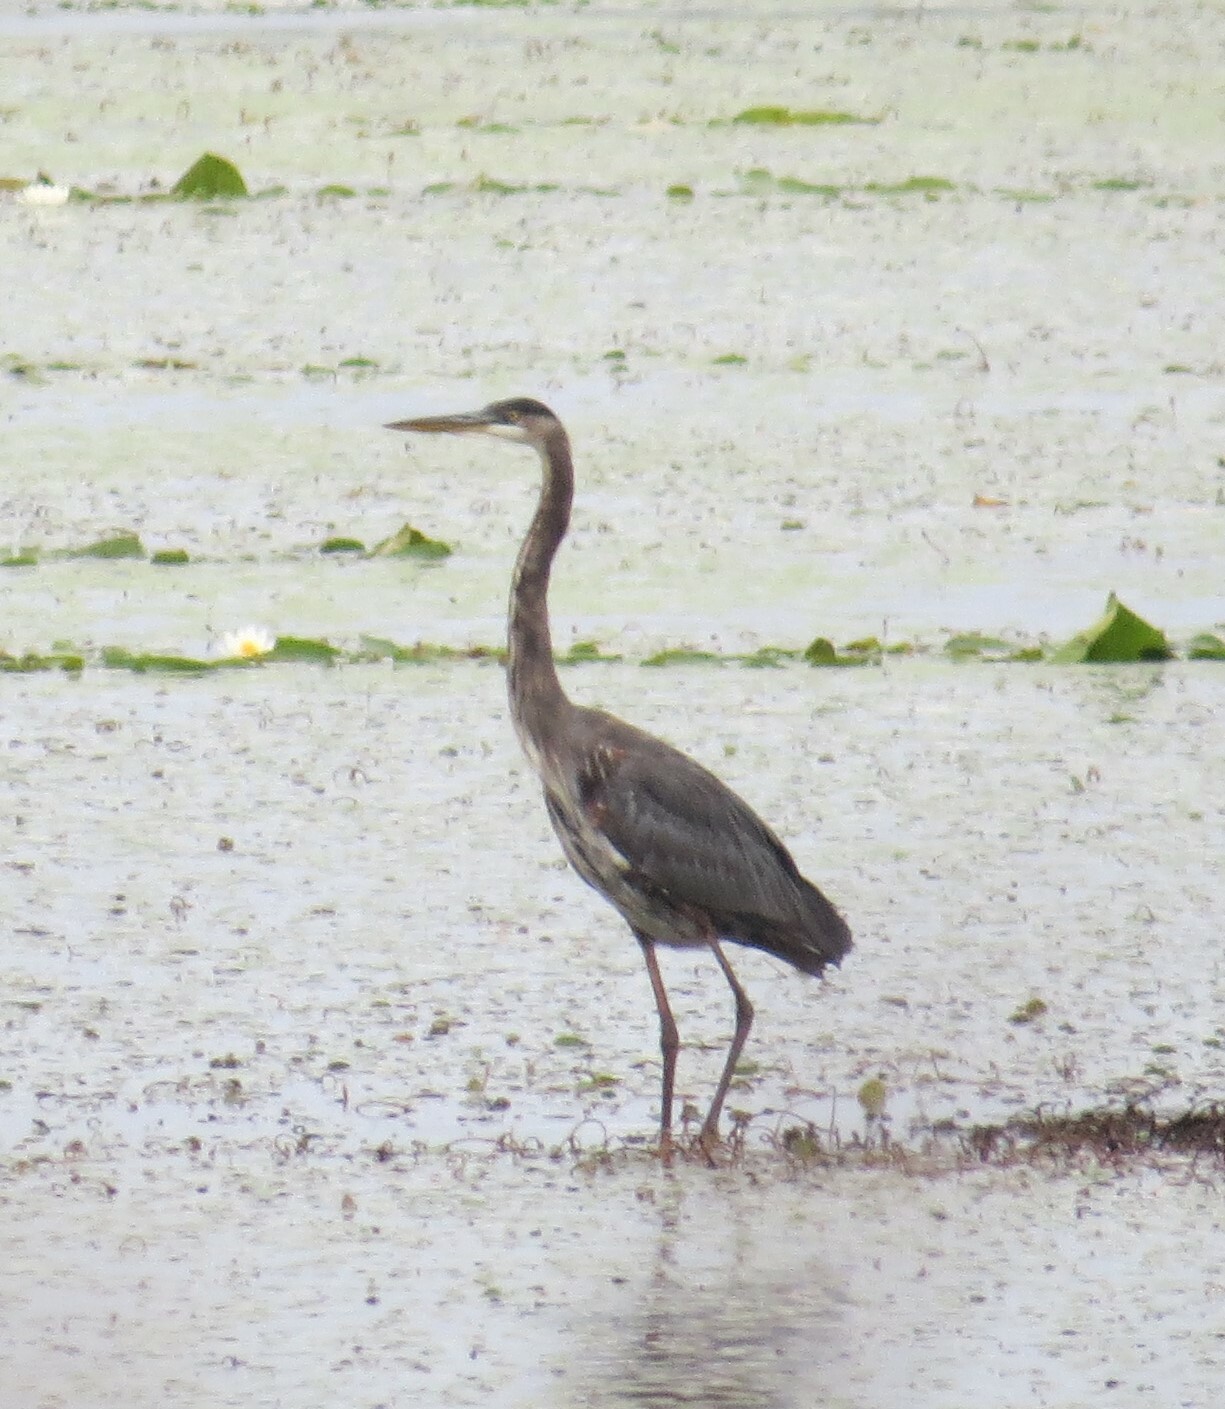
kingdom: Animalia
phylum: Chordata
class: Aves
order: Pelecaniformes
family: Ardeidae
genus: Ardea
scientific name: Ardea herodias
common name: Great blue heron
